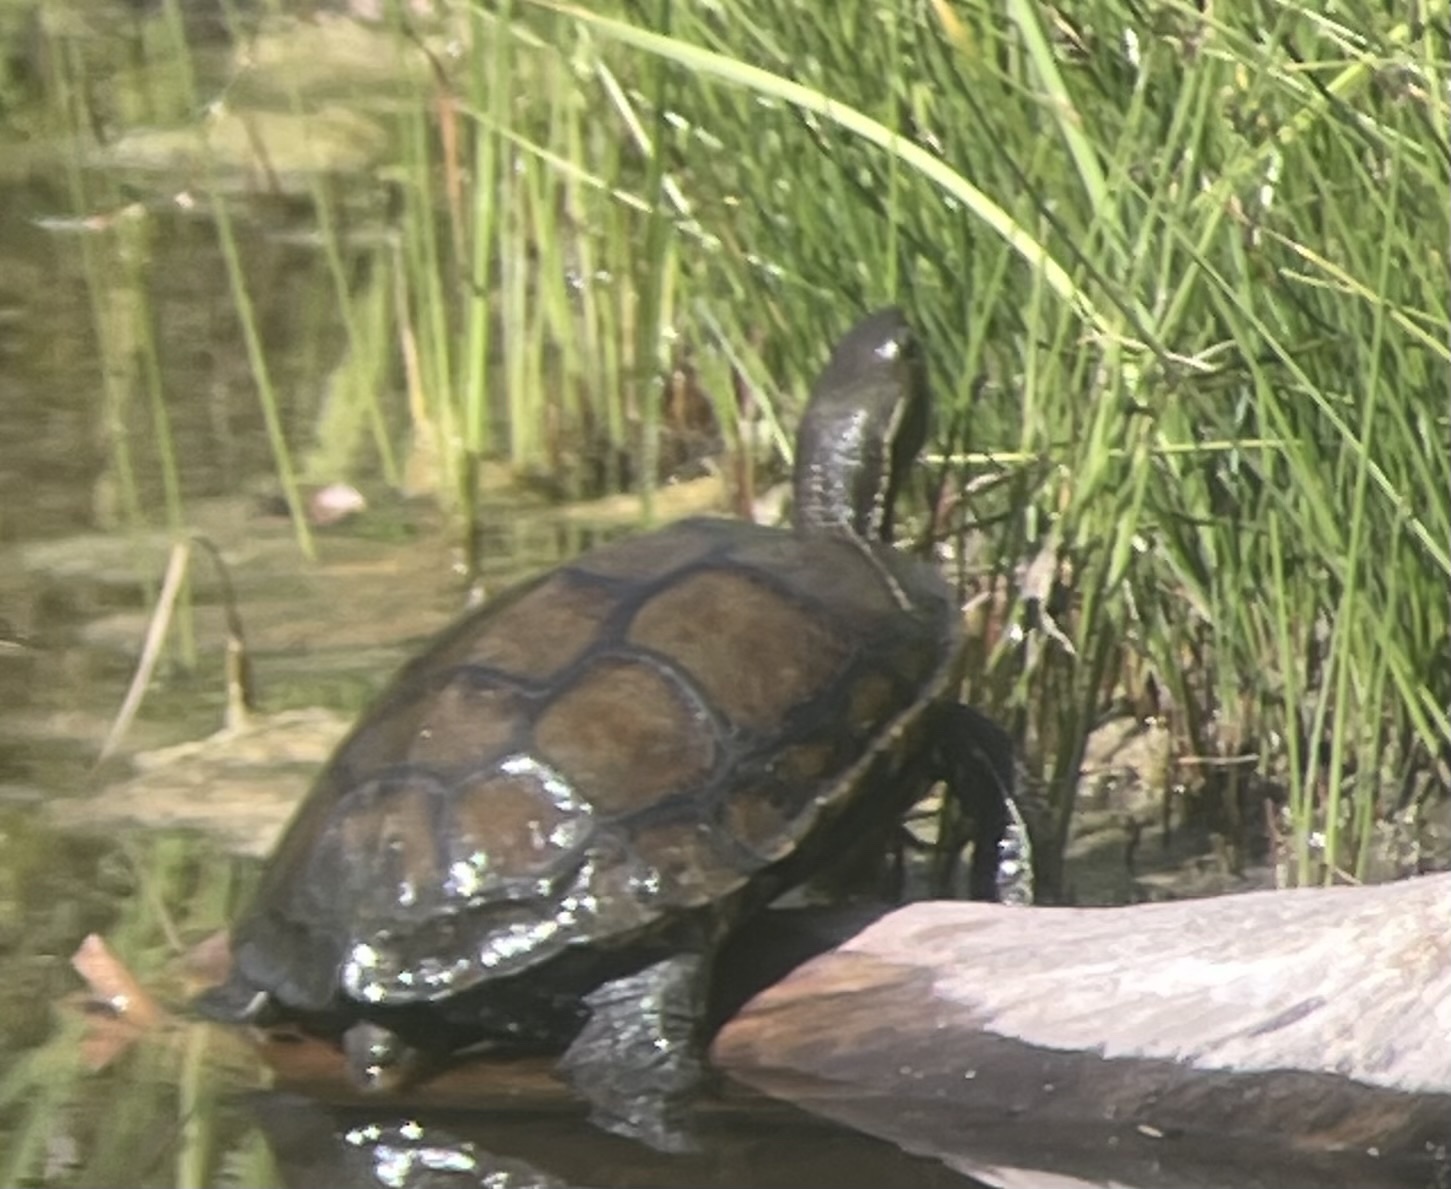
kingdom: Animalia
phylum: Chordata
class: Testudines
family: Geoemydidae
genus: Mauremys
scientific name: Mauremys rivulata
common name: Western caspian turtle
